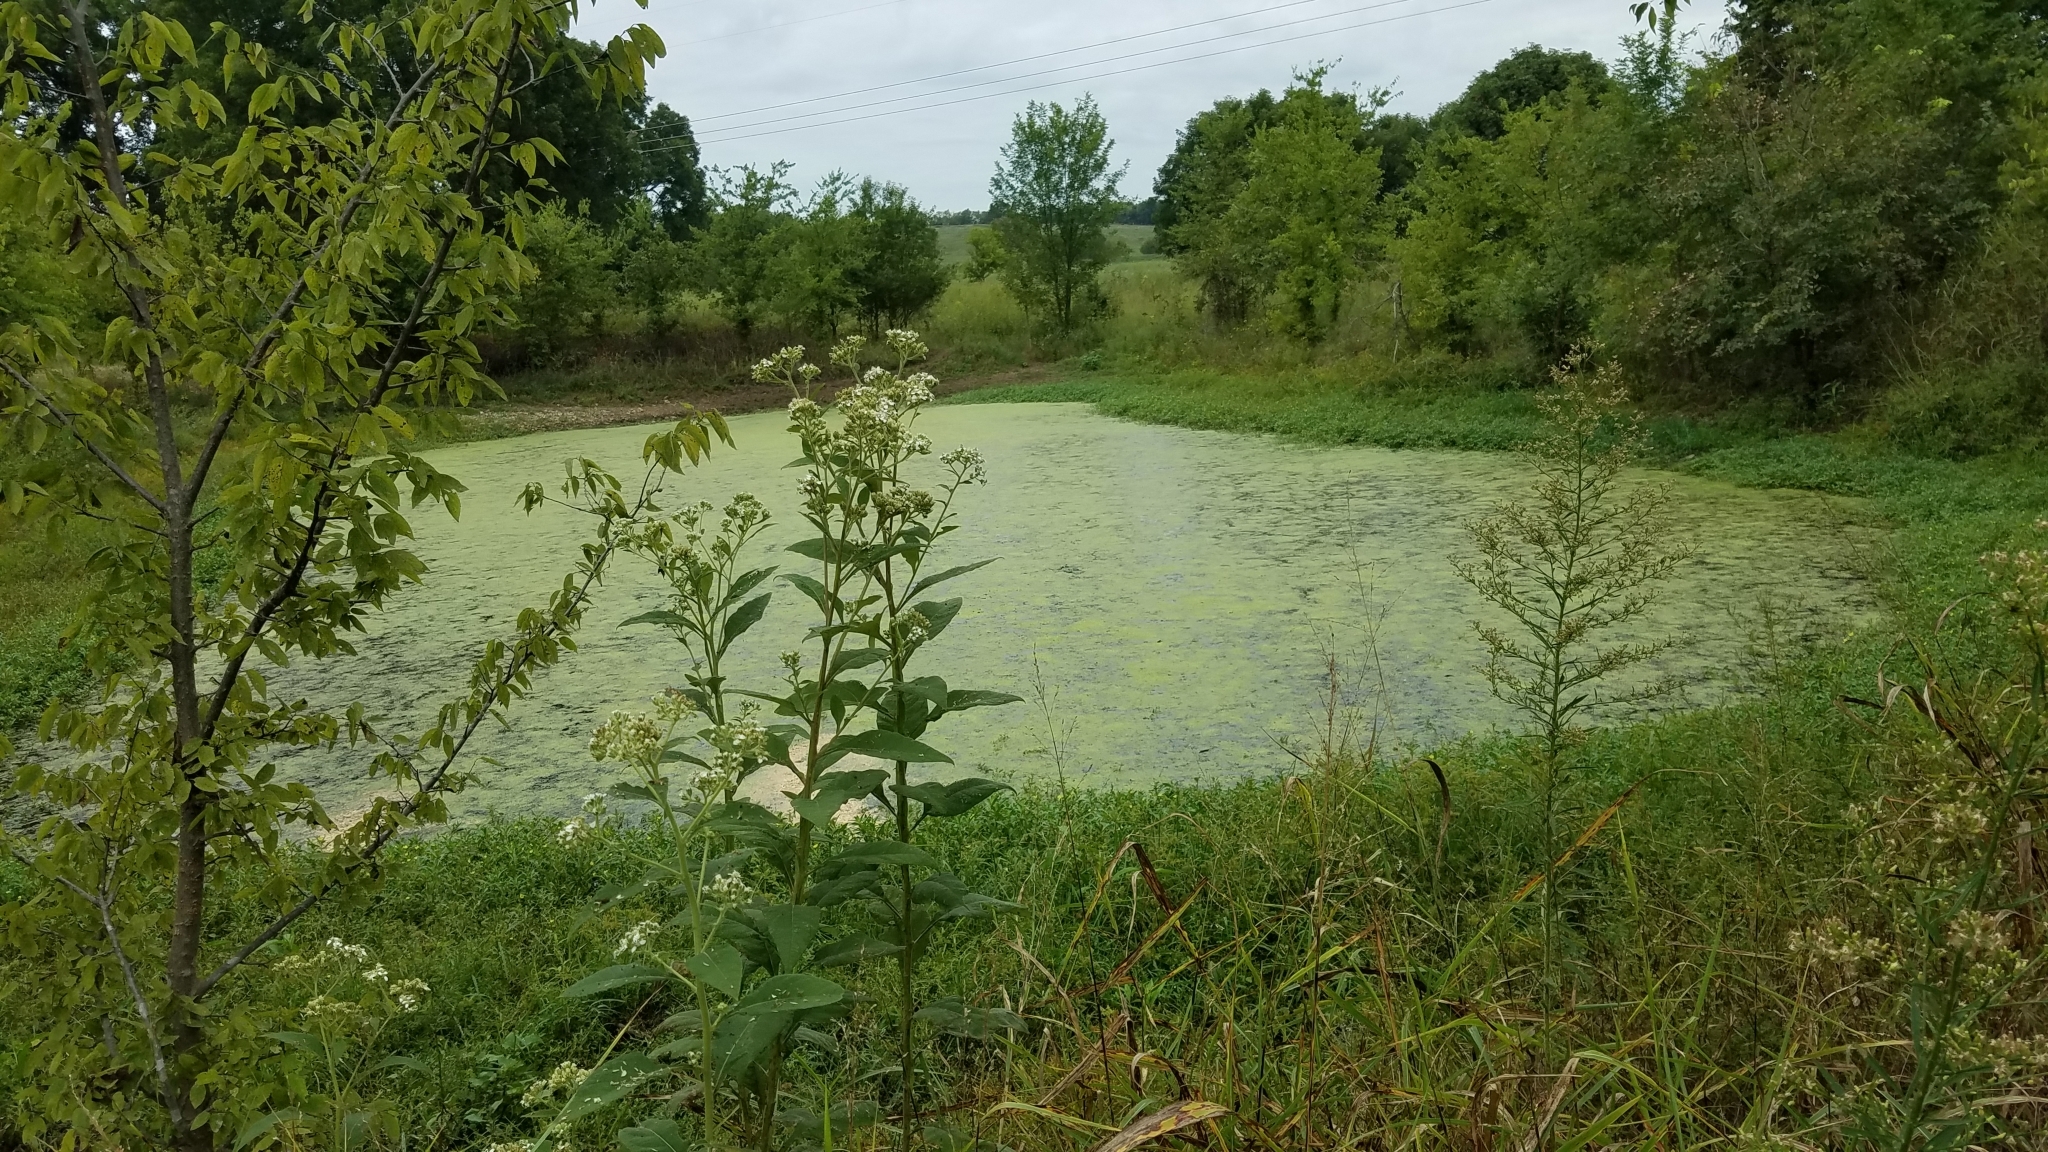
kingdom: Plantae
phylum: Tracheophyta
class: Magnoliopsida
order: Asterales
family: Asteraceae
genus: Verbesina
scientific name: Verbesina virginica
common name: Frostweed
